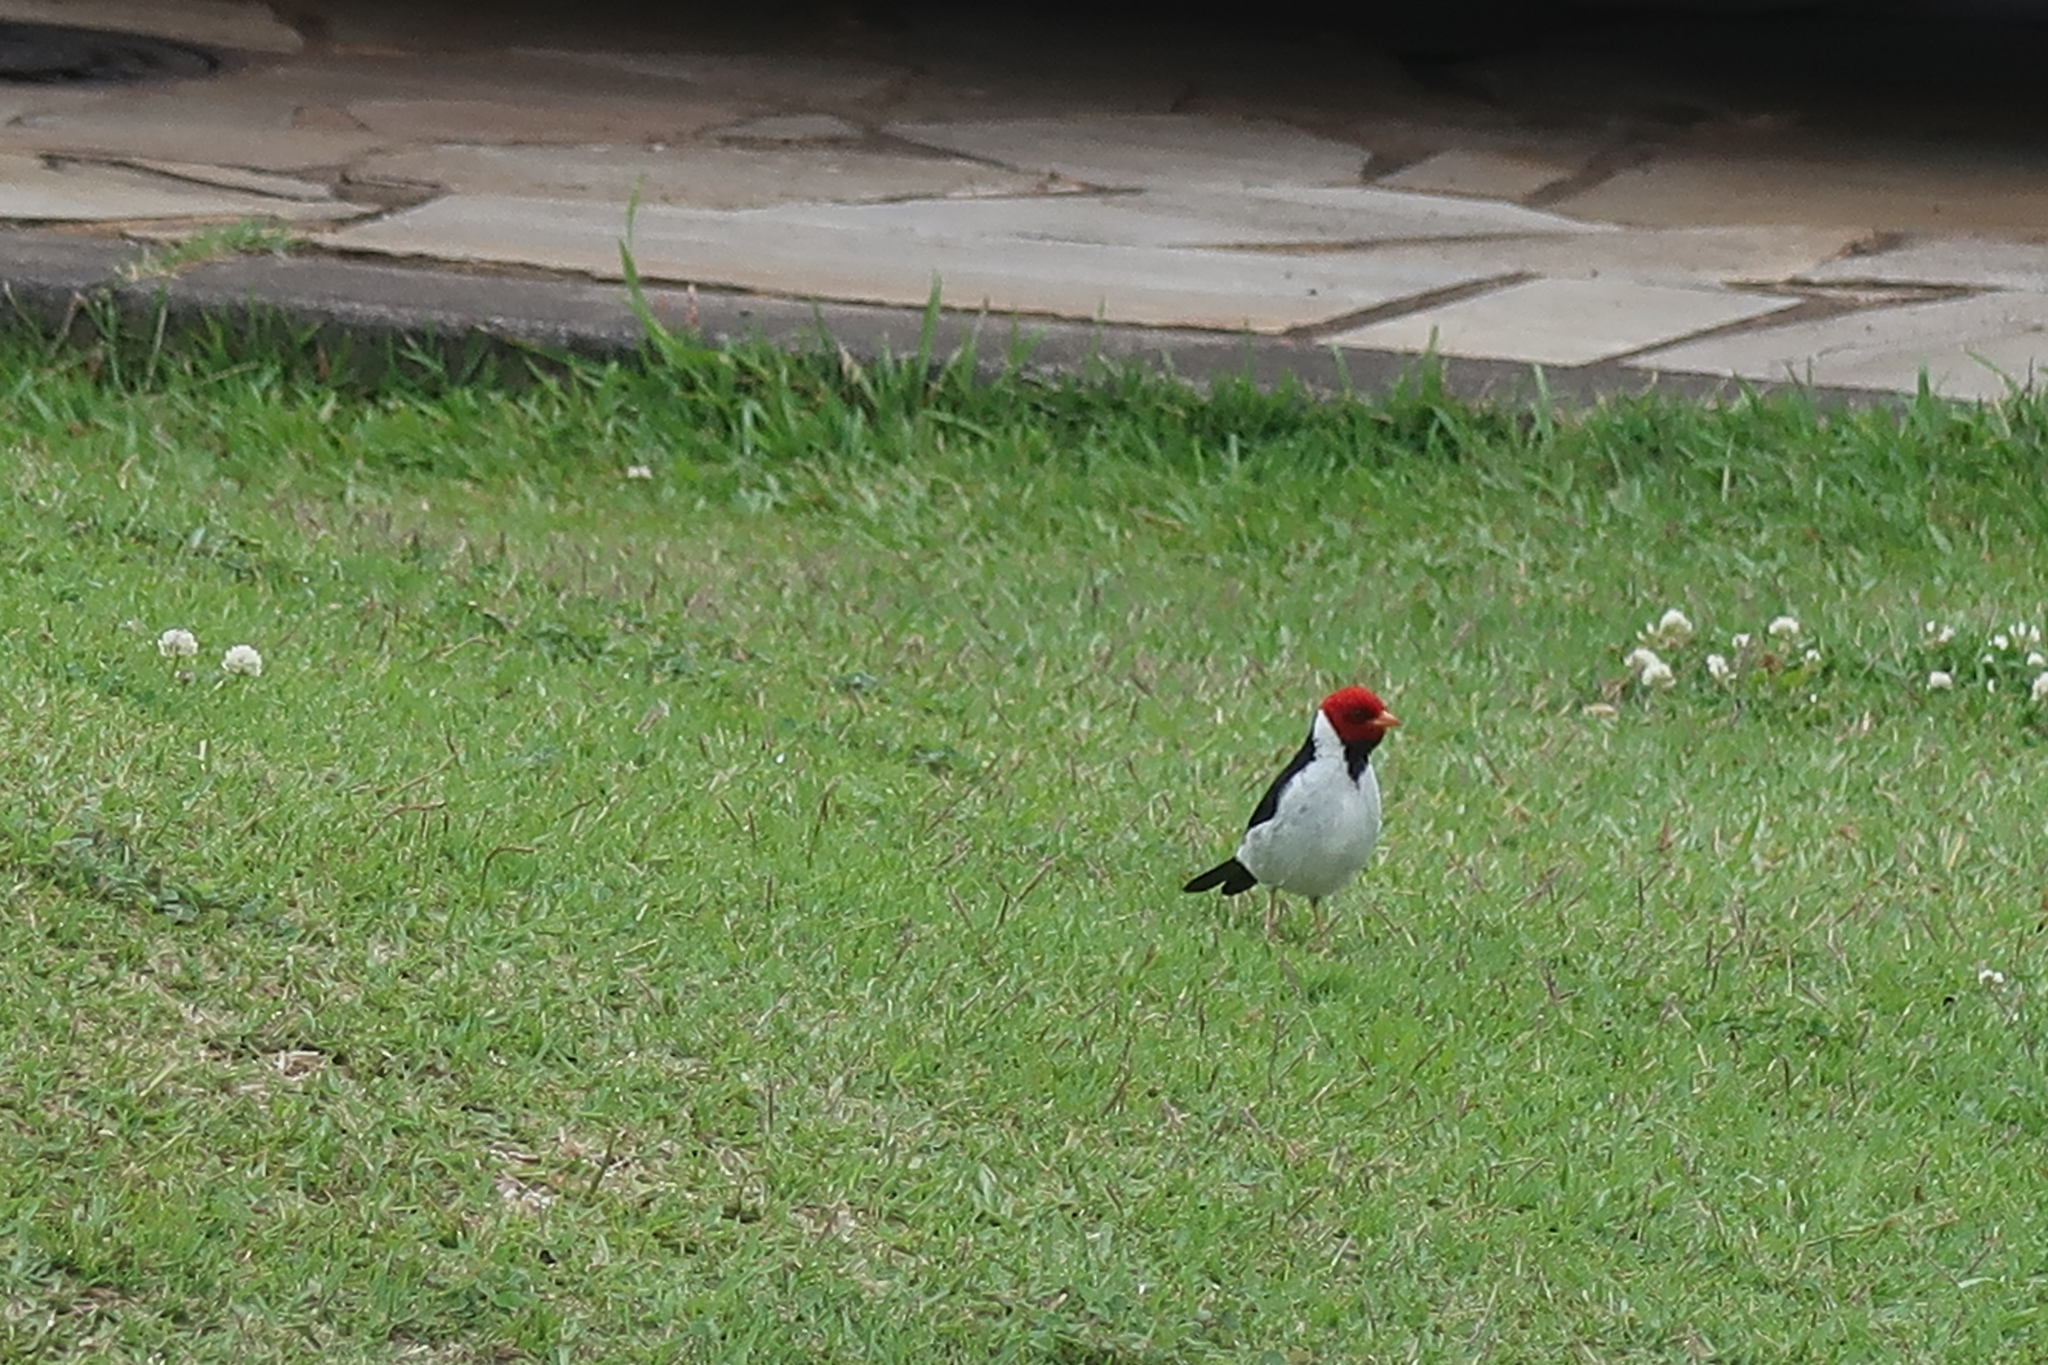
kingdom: Animalia
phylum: Chordata
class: Aves
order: Passeriformes
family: Thraupidae
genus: Paroaria
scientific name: Paroaria capitata
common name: Yellow-billed cardinal
